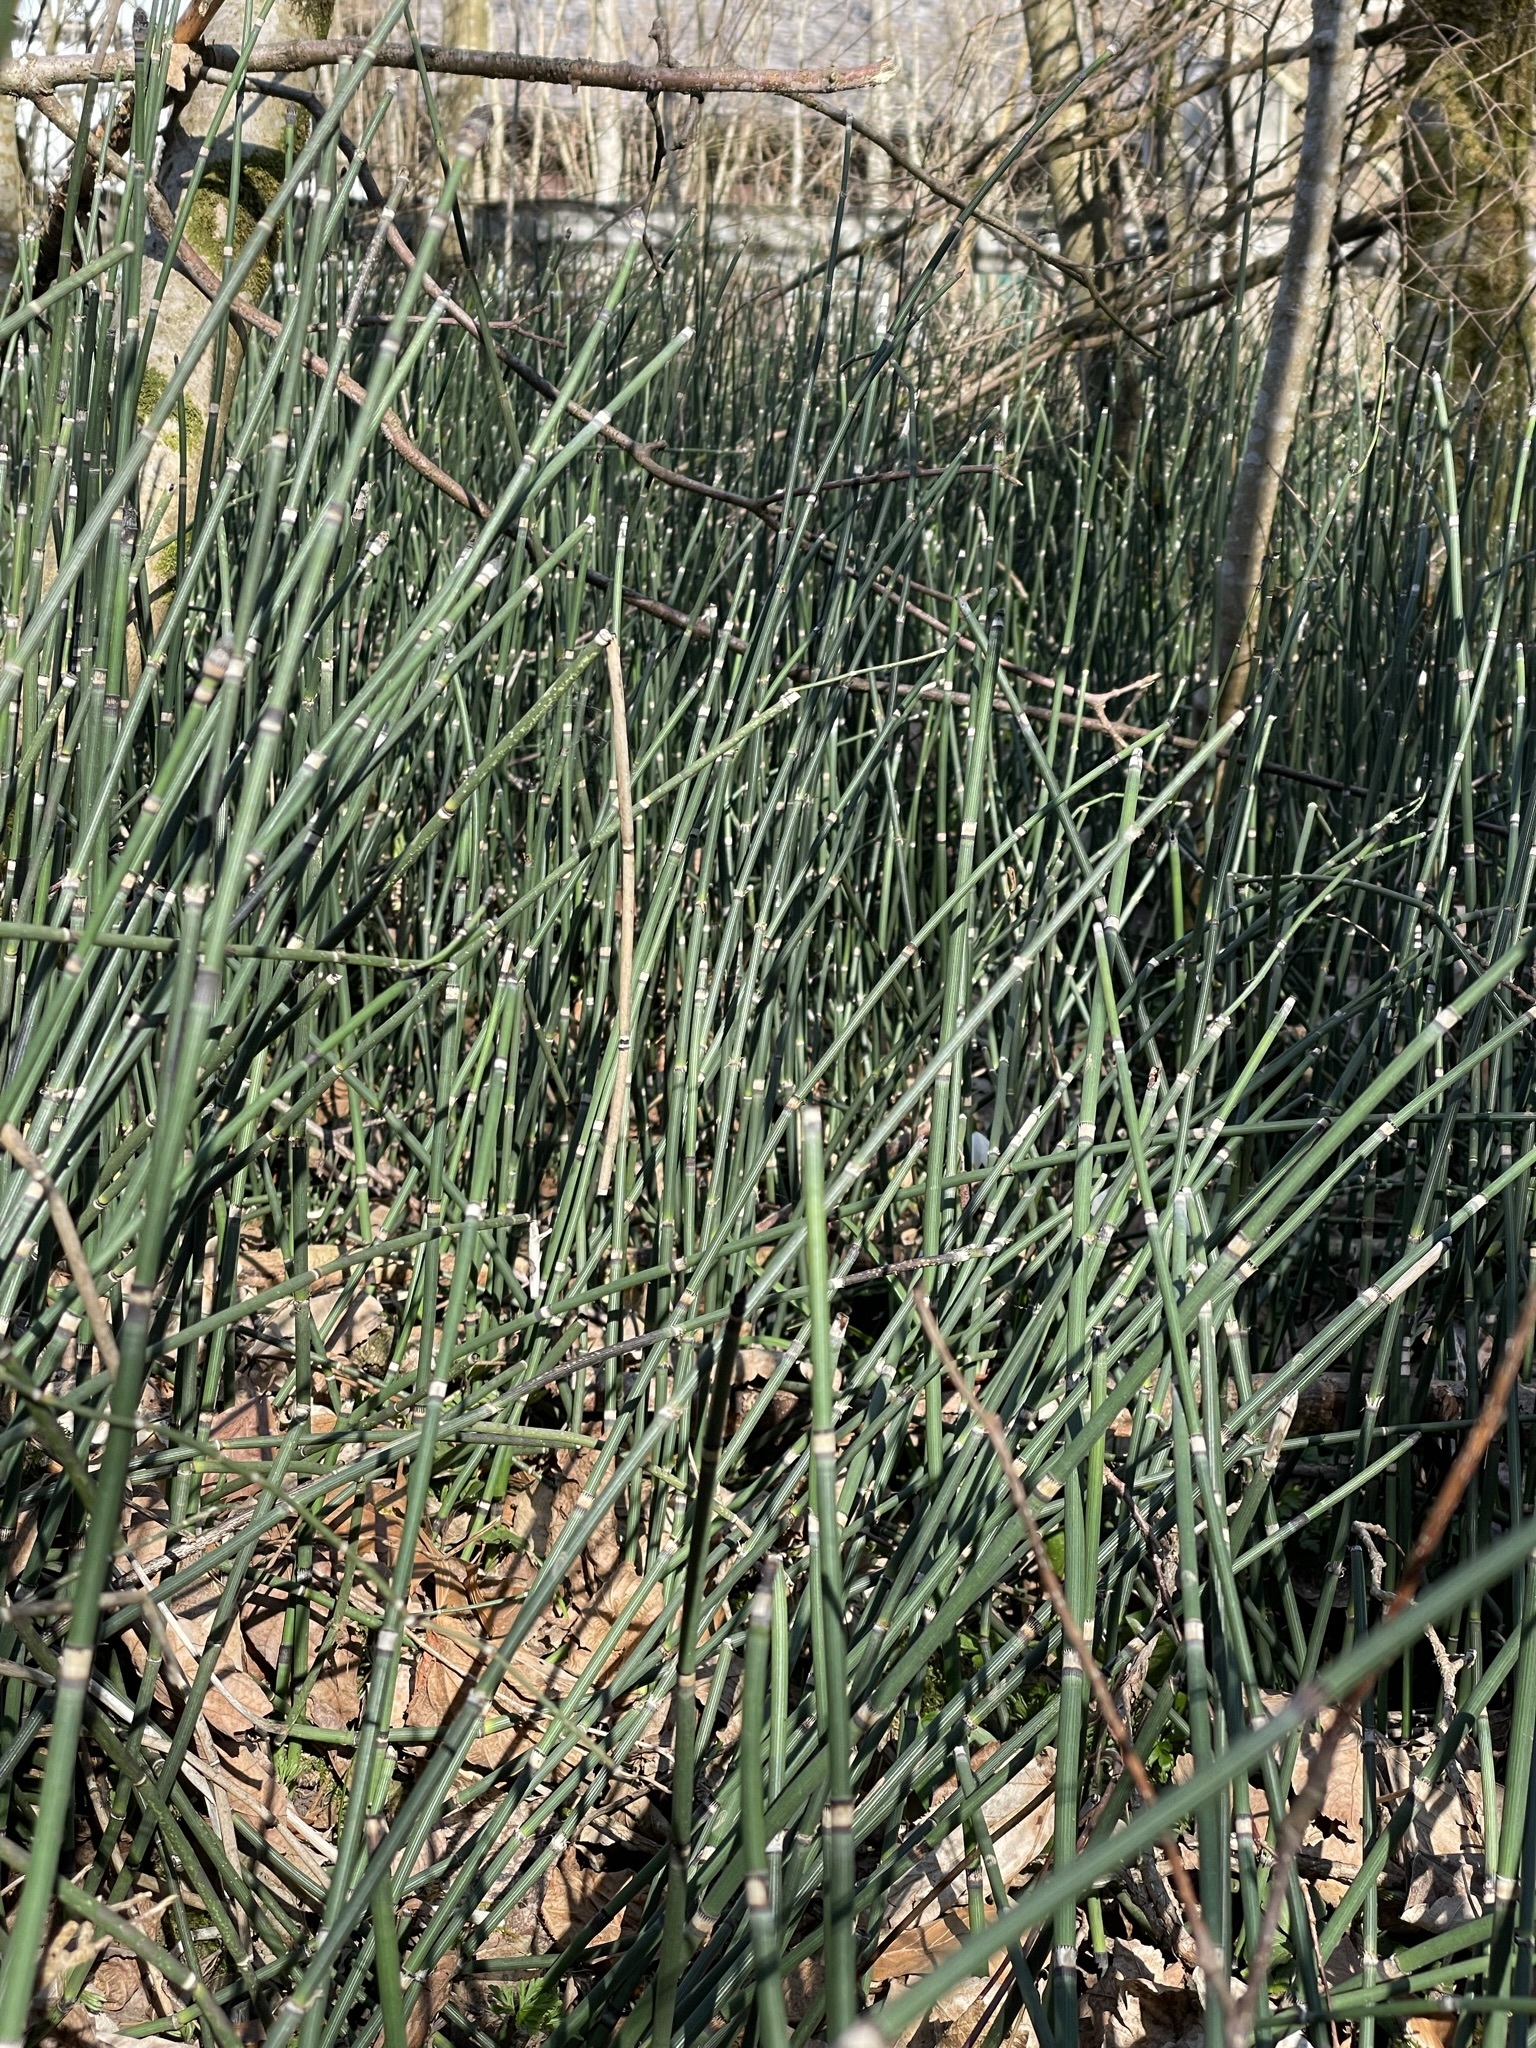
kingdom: Plantae
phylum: Tracheophyta
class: Polypodiopsida
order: Equisetales
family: Equisetaceae
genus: Equisetum
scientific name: Equisetum hyemale
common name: Rough horsetail
